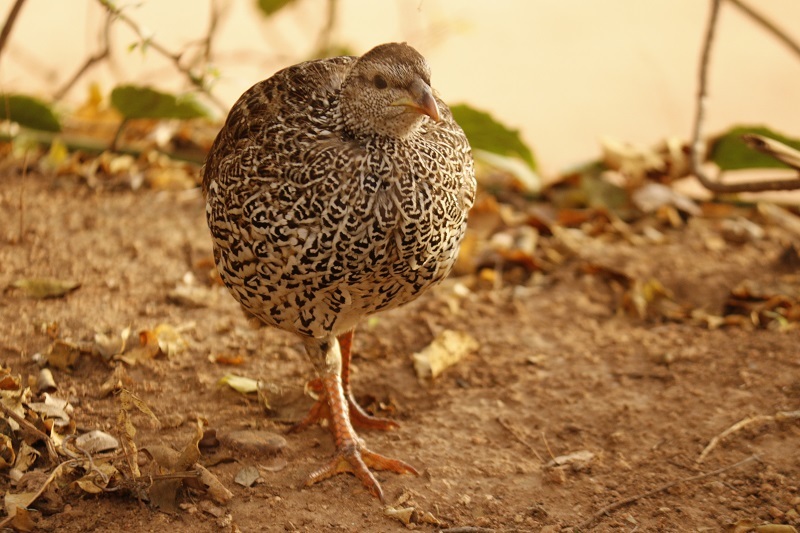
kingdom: Animalia
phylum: Chordata
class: Aves
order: Galliformes
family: Phasianidae
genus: Pternistis
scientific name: Pternistis natalensis
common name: Natal spurfowl
